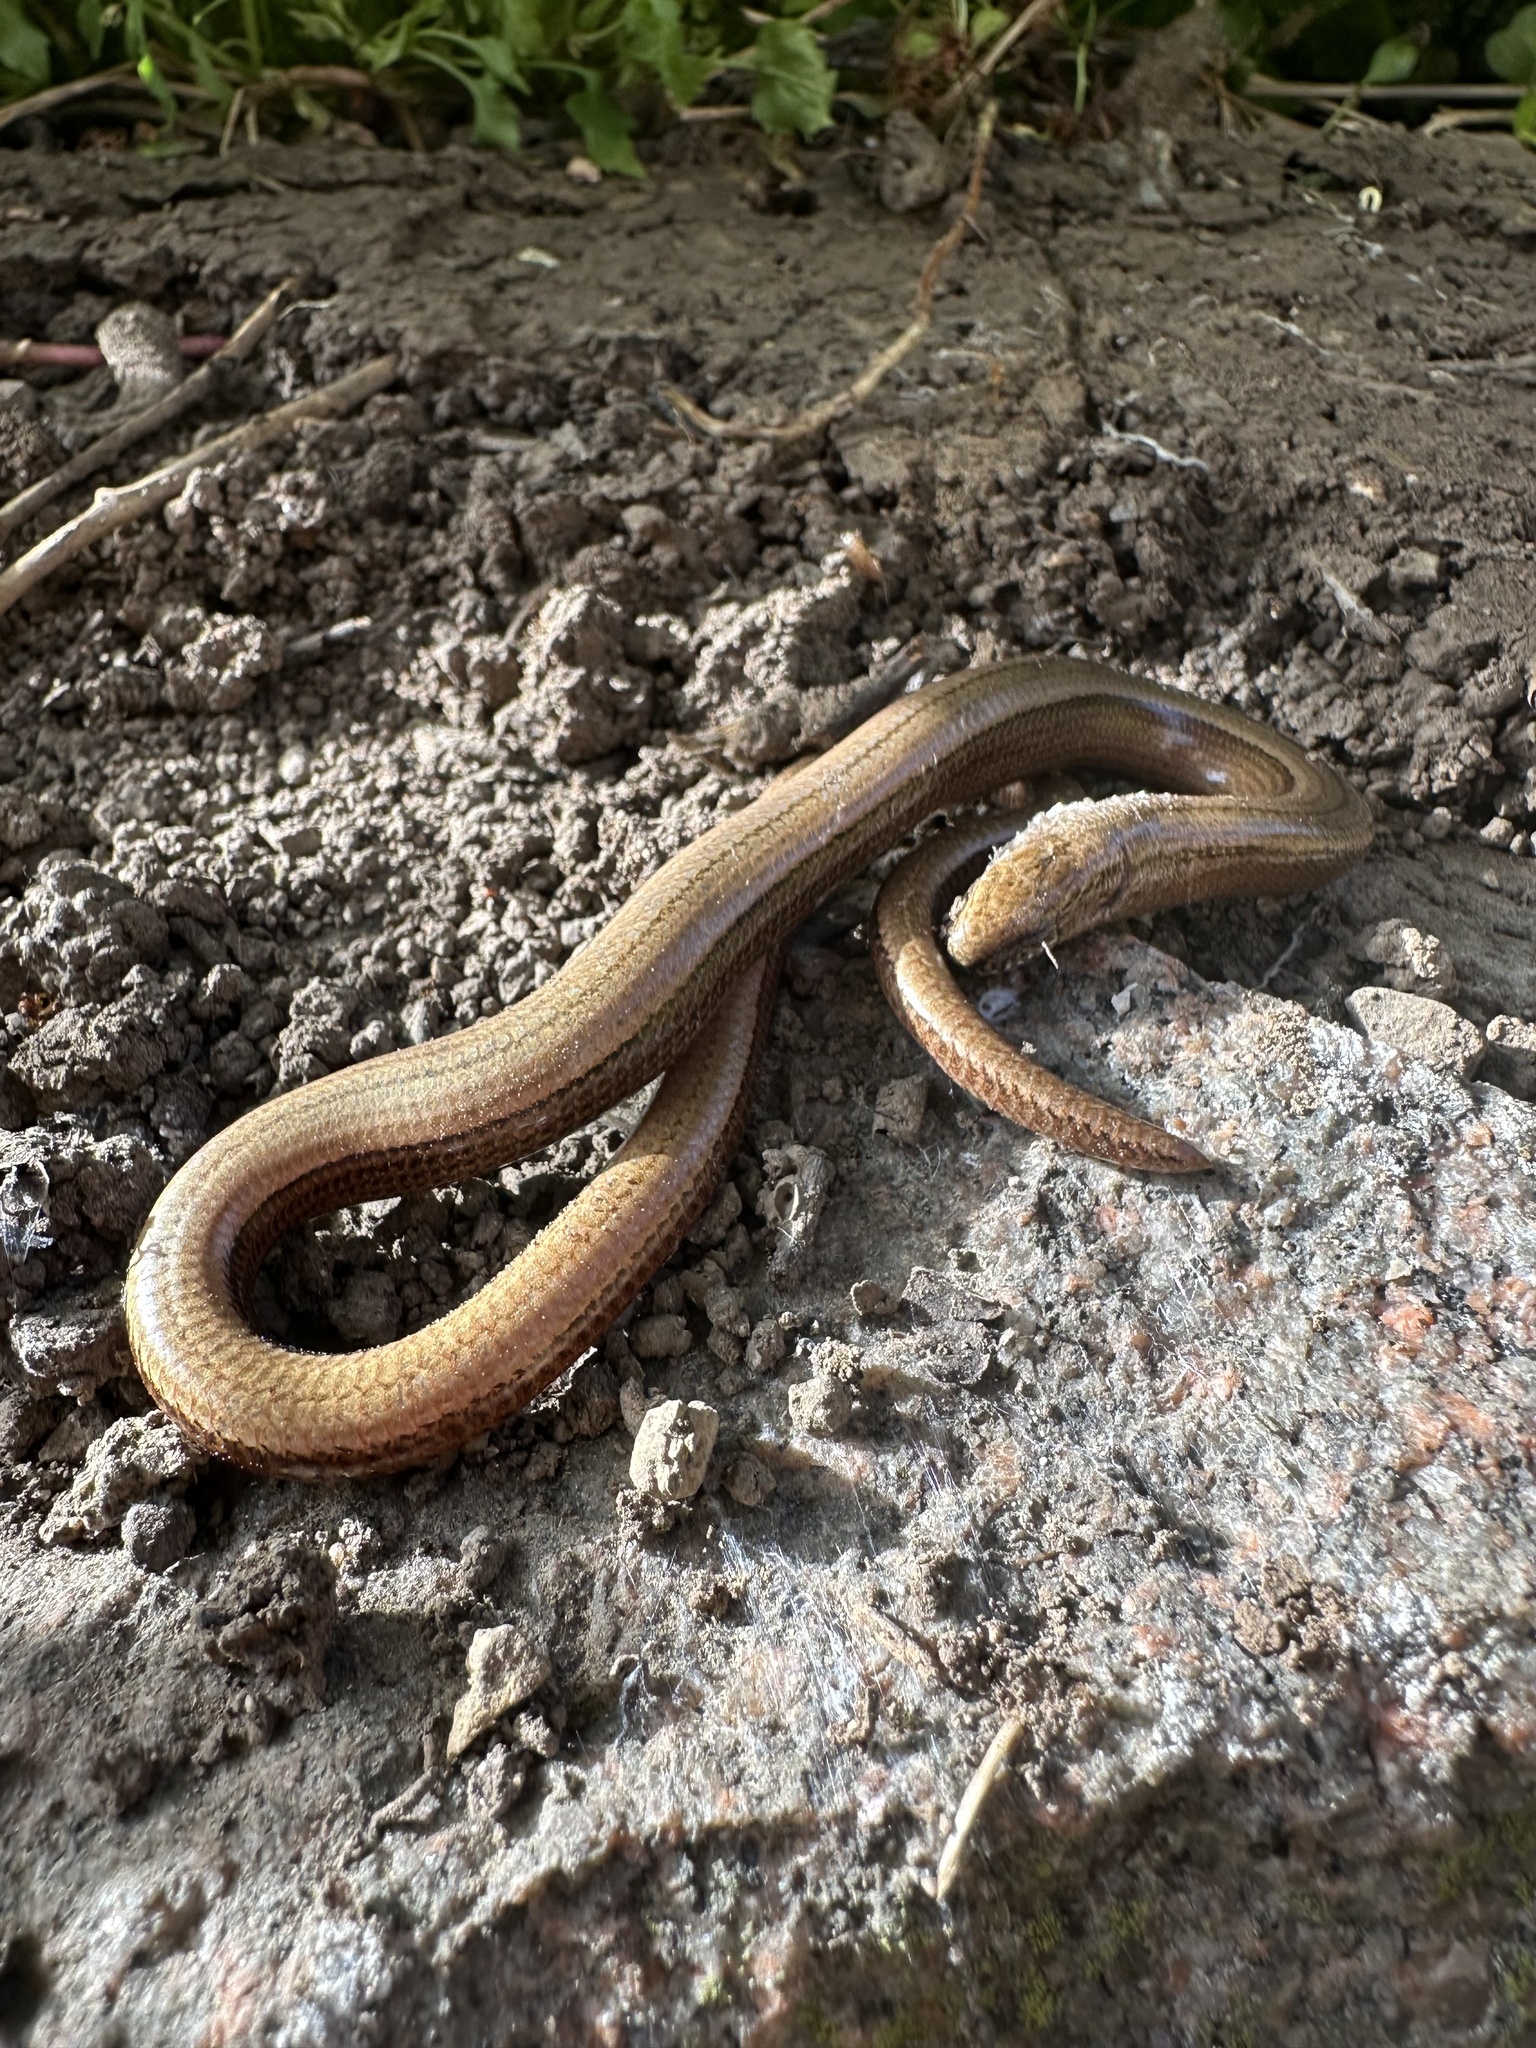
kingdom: Animalia
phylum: Chordata
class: Squamata
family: Anguidae
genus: Anguis
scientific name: Anguis fragilis
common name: Slow worm
